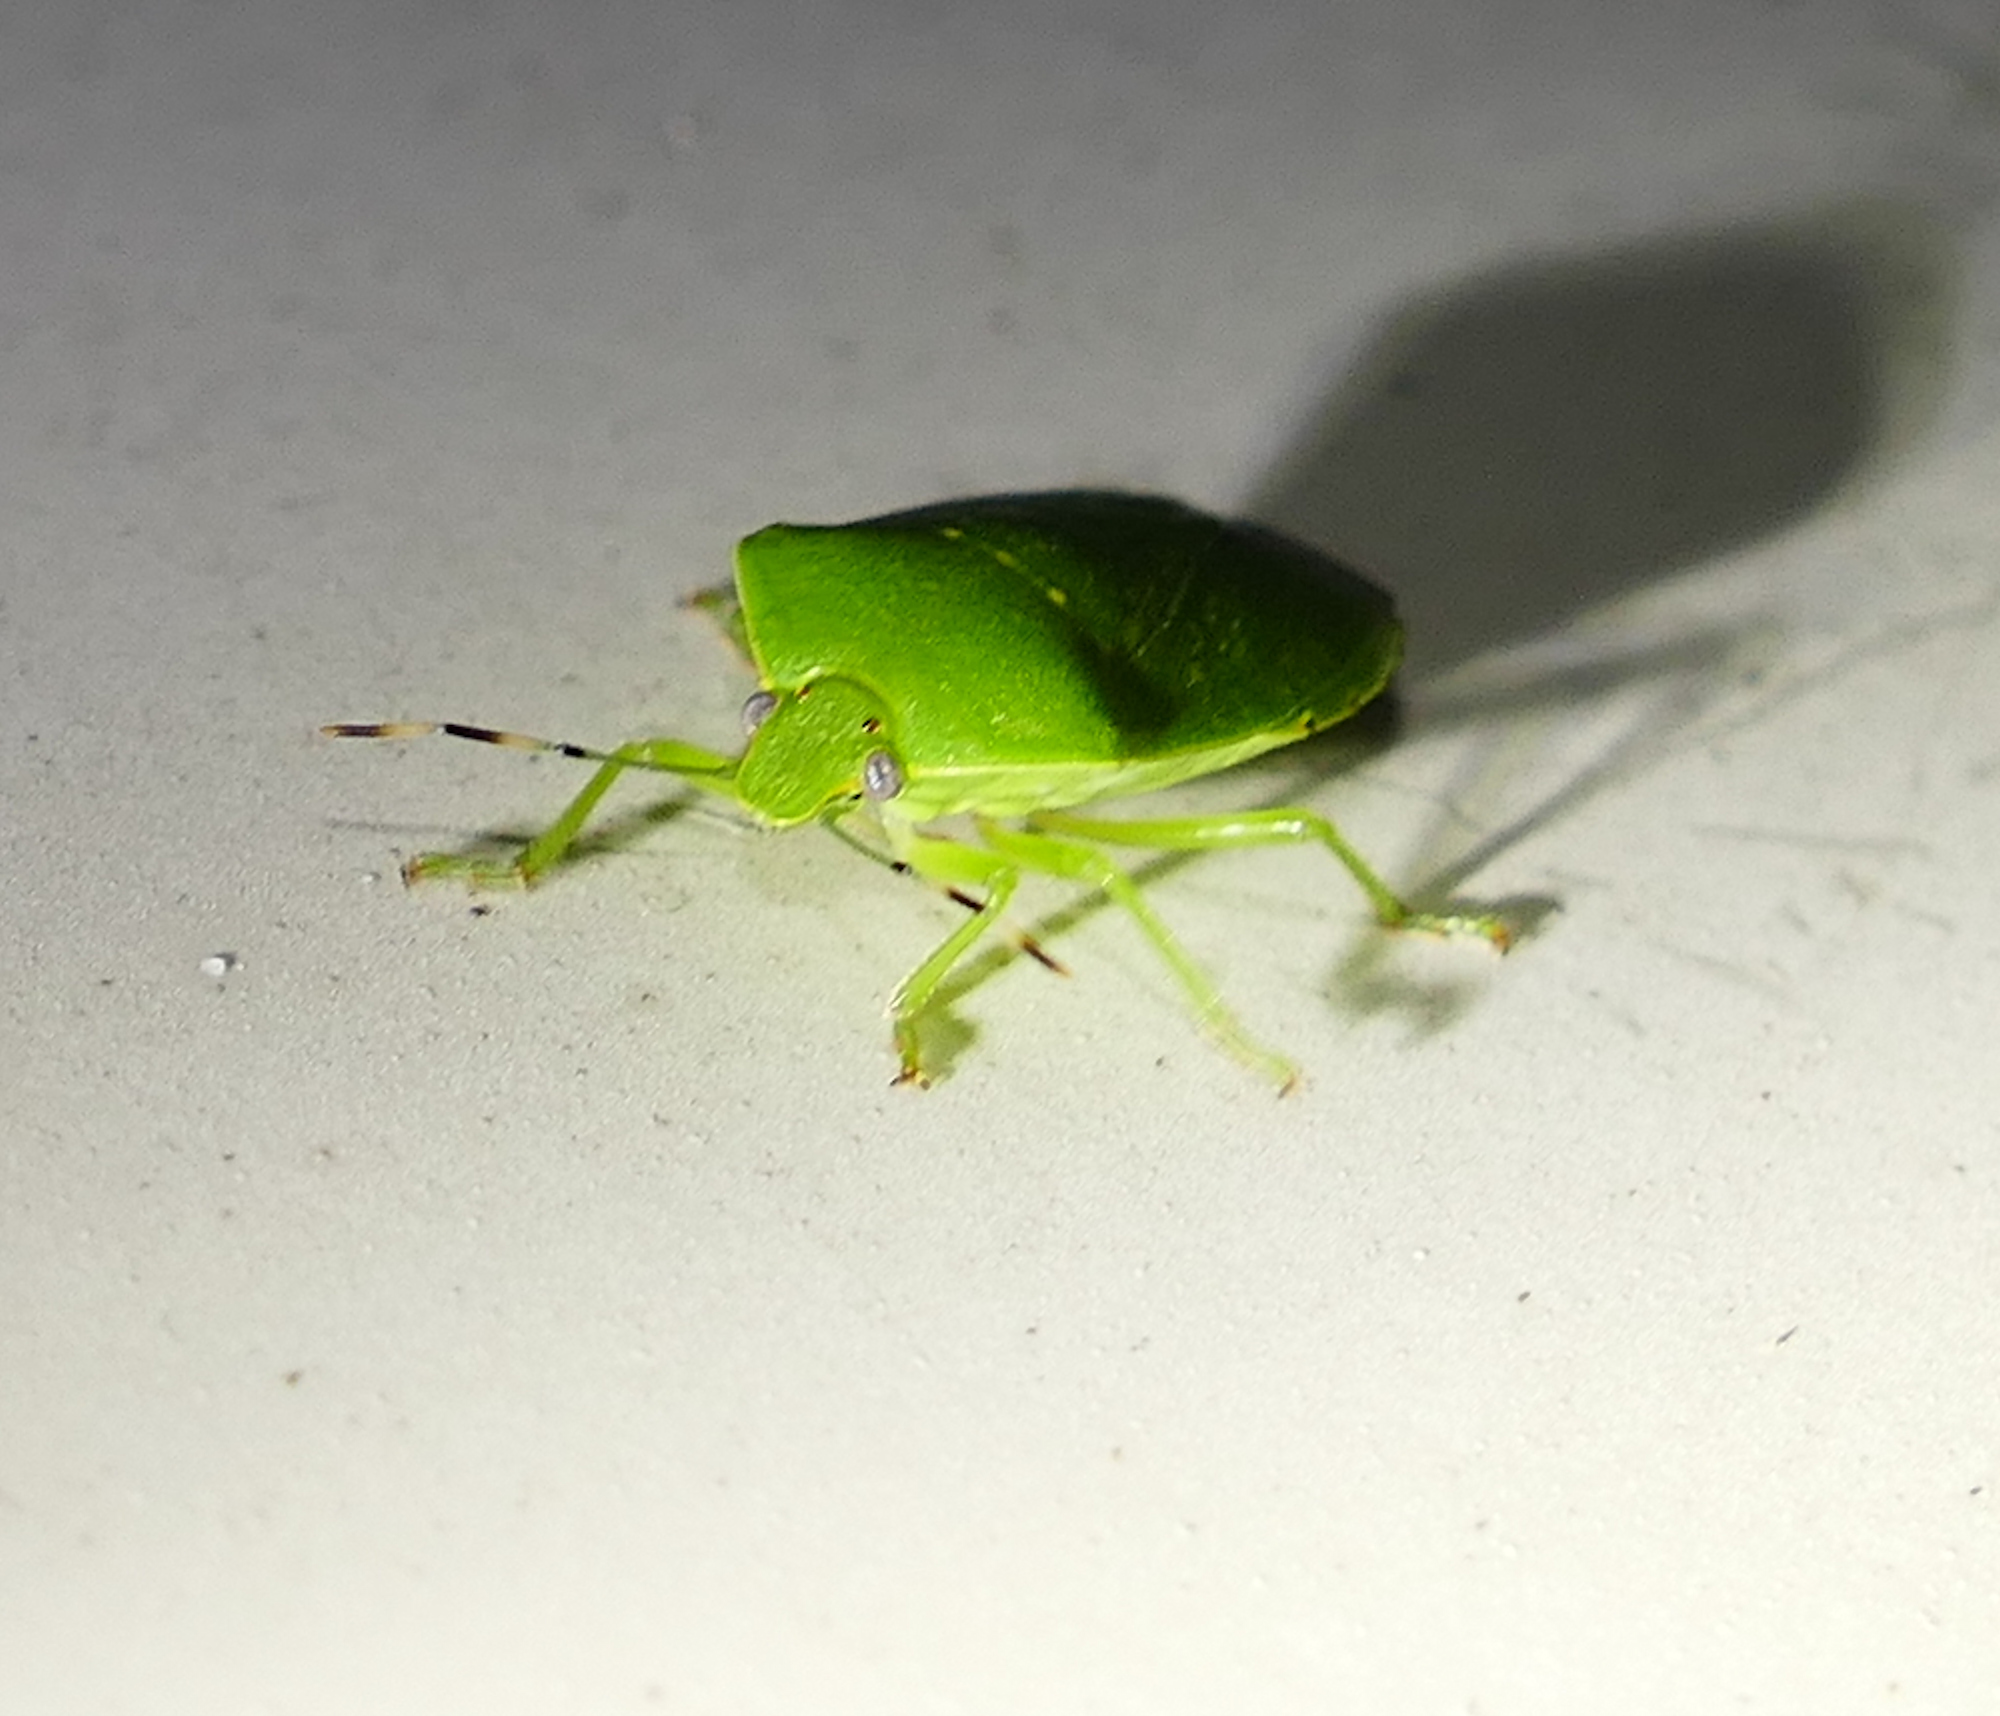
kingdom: Animalia
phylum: Arthropoda
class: Insecta
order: Hemiptera
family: Pentatomidae
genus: Chinavia
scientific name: Chinavia hilaris
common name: Green stink bug
